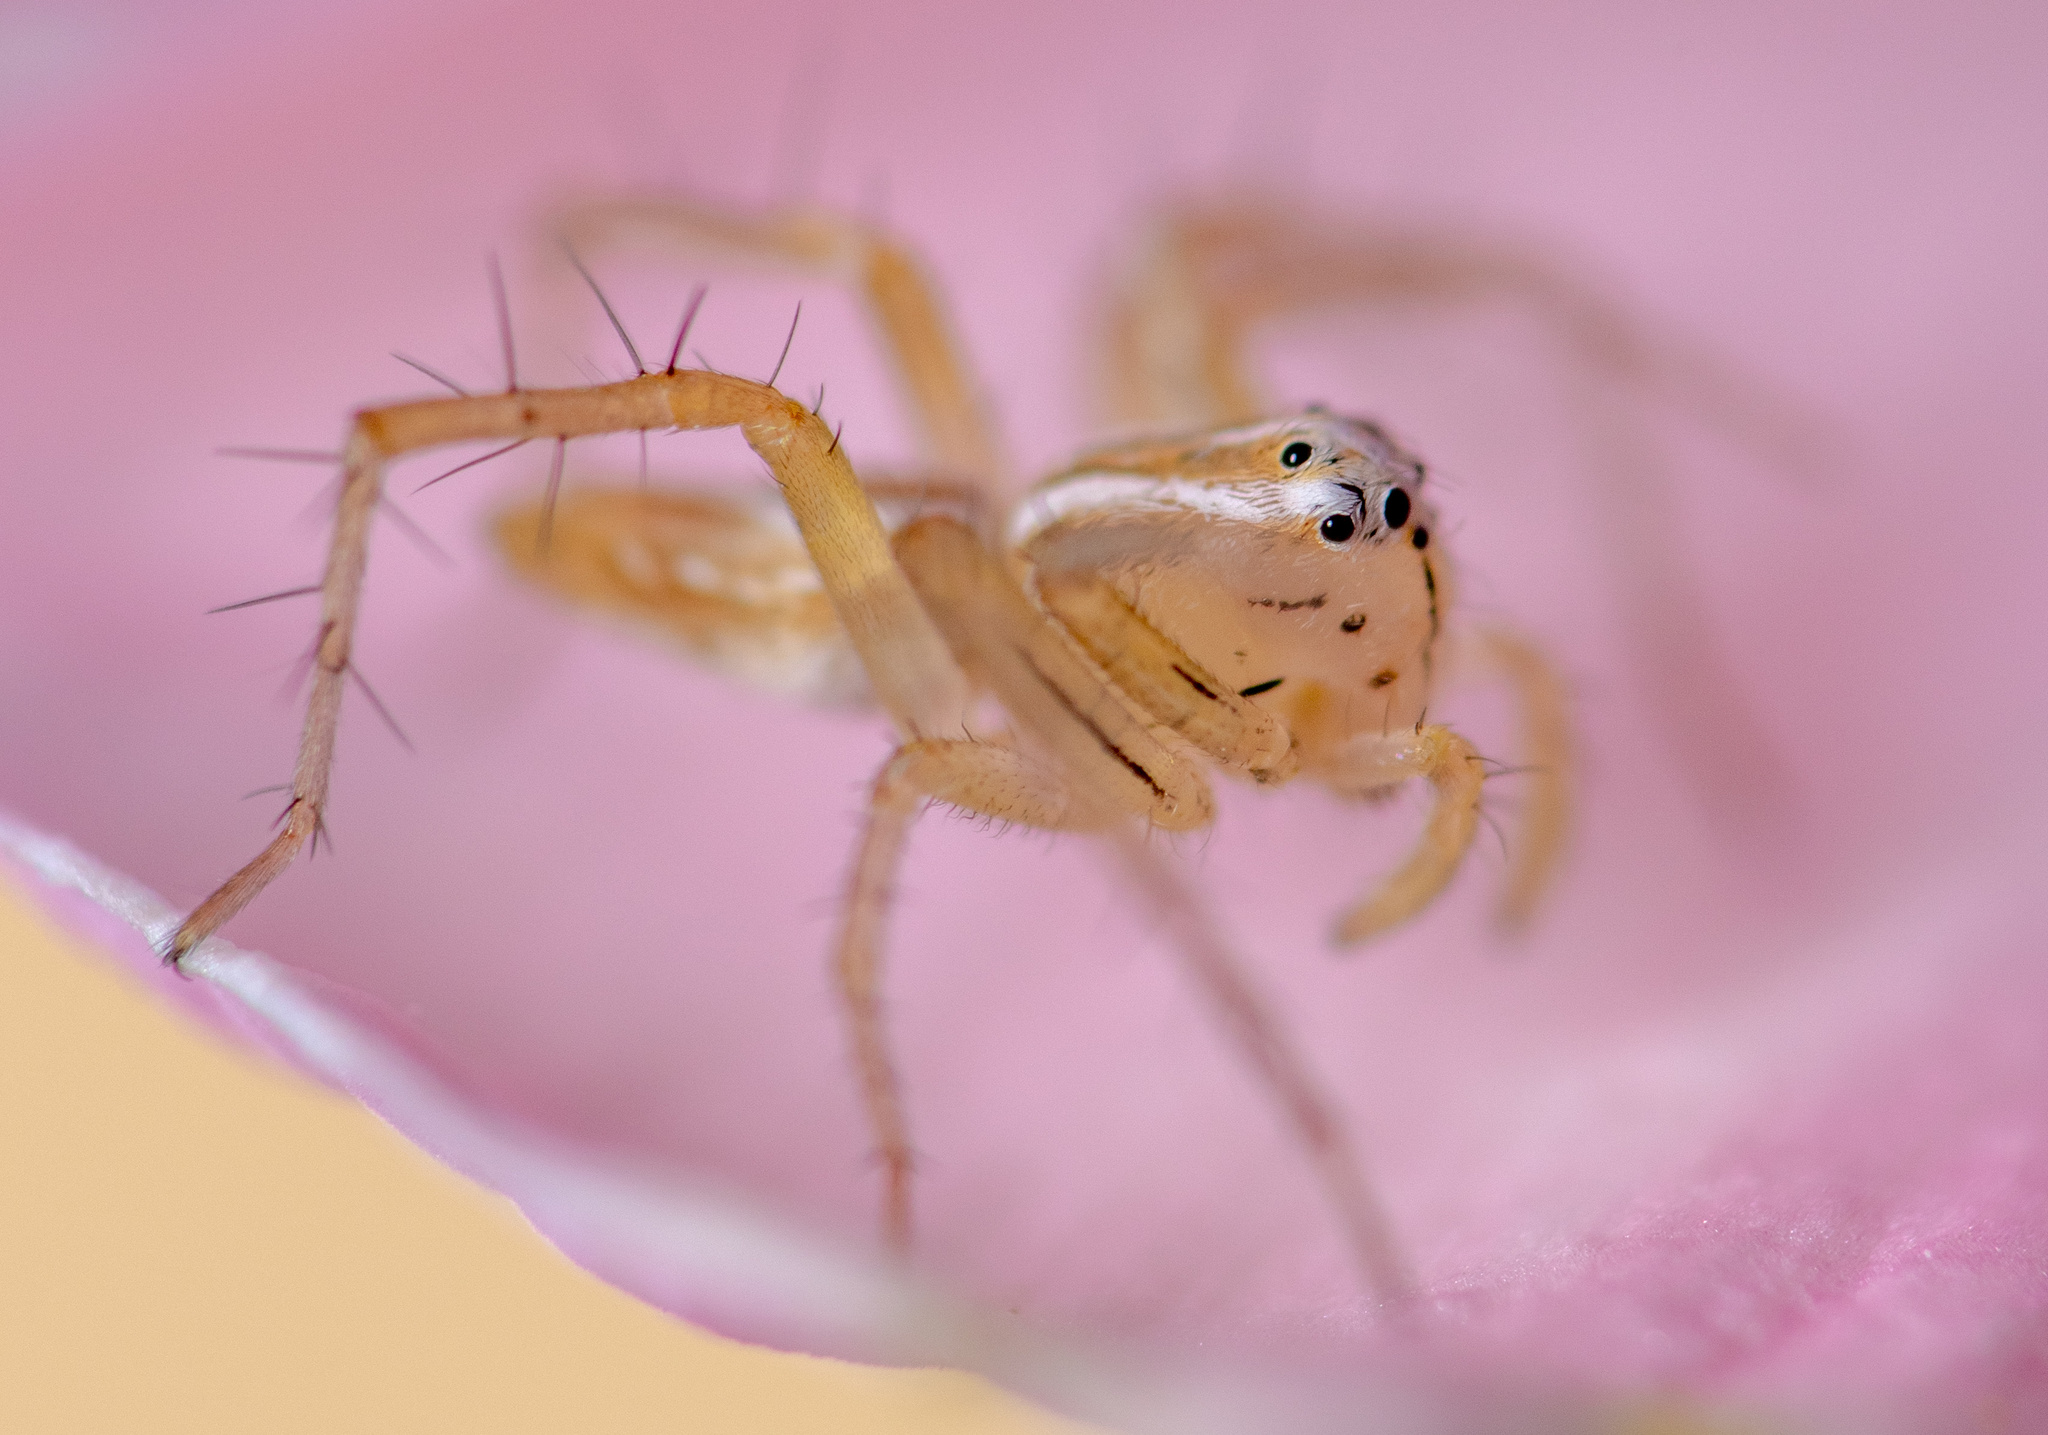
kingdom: Animalia
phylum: Arthropoda
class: Arachnida
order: Araneae
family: Oxyopidae
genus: Oxyopes
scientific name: Oxyopes salticus
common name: Lynx spiders
